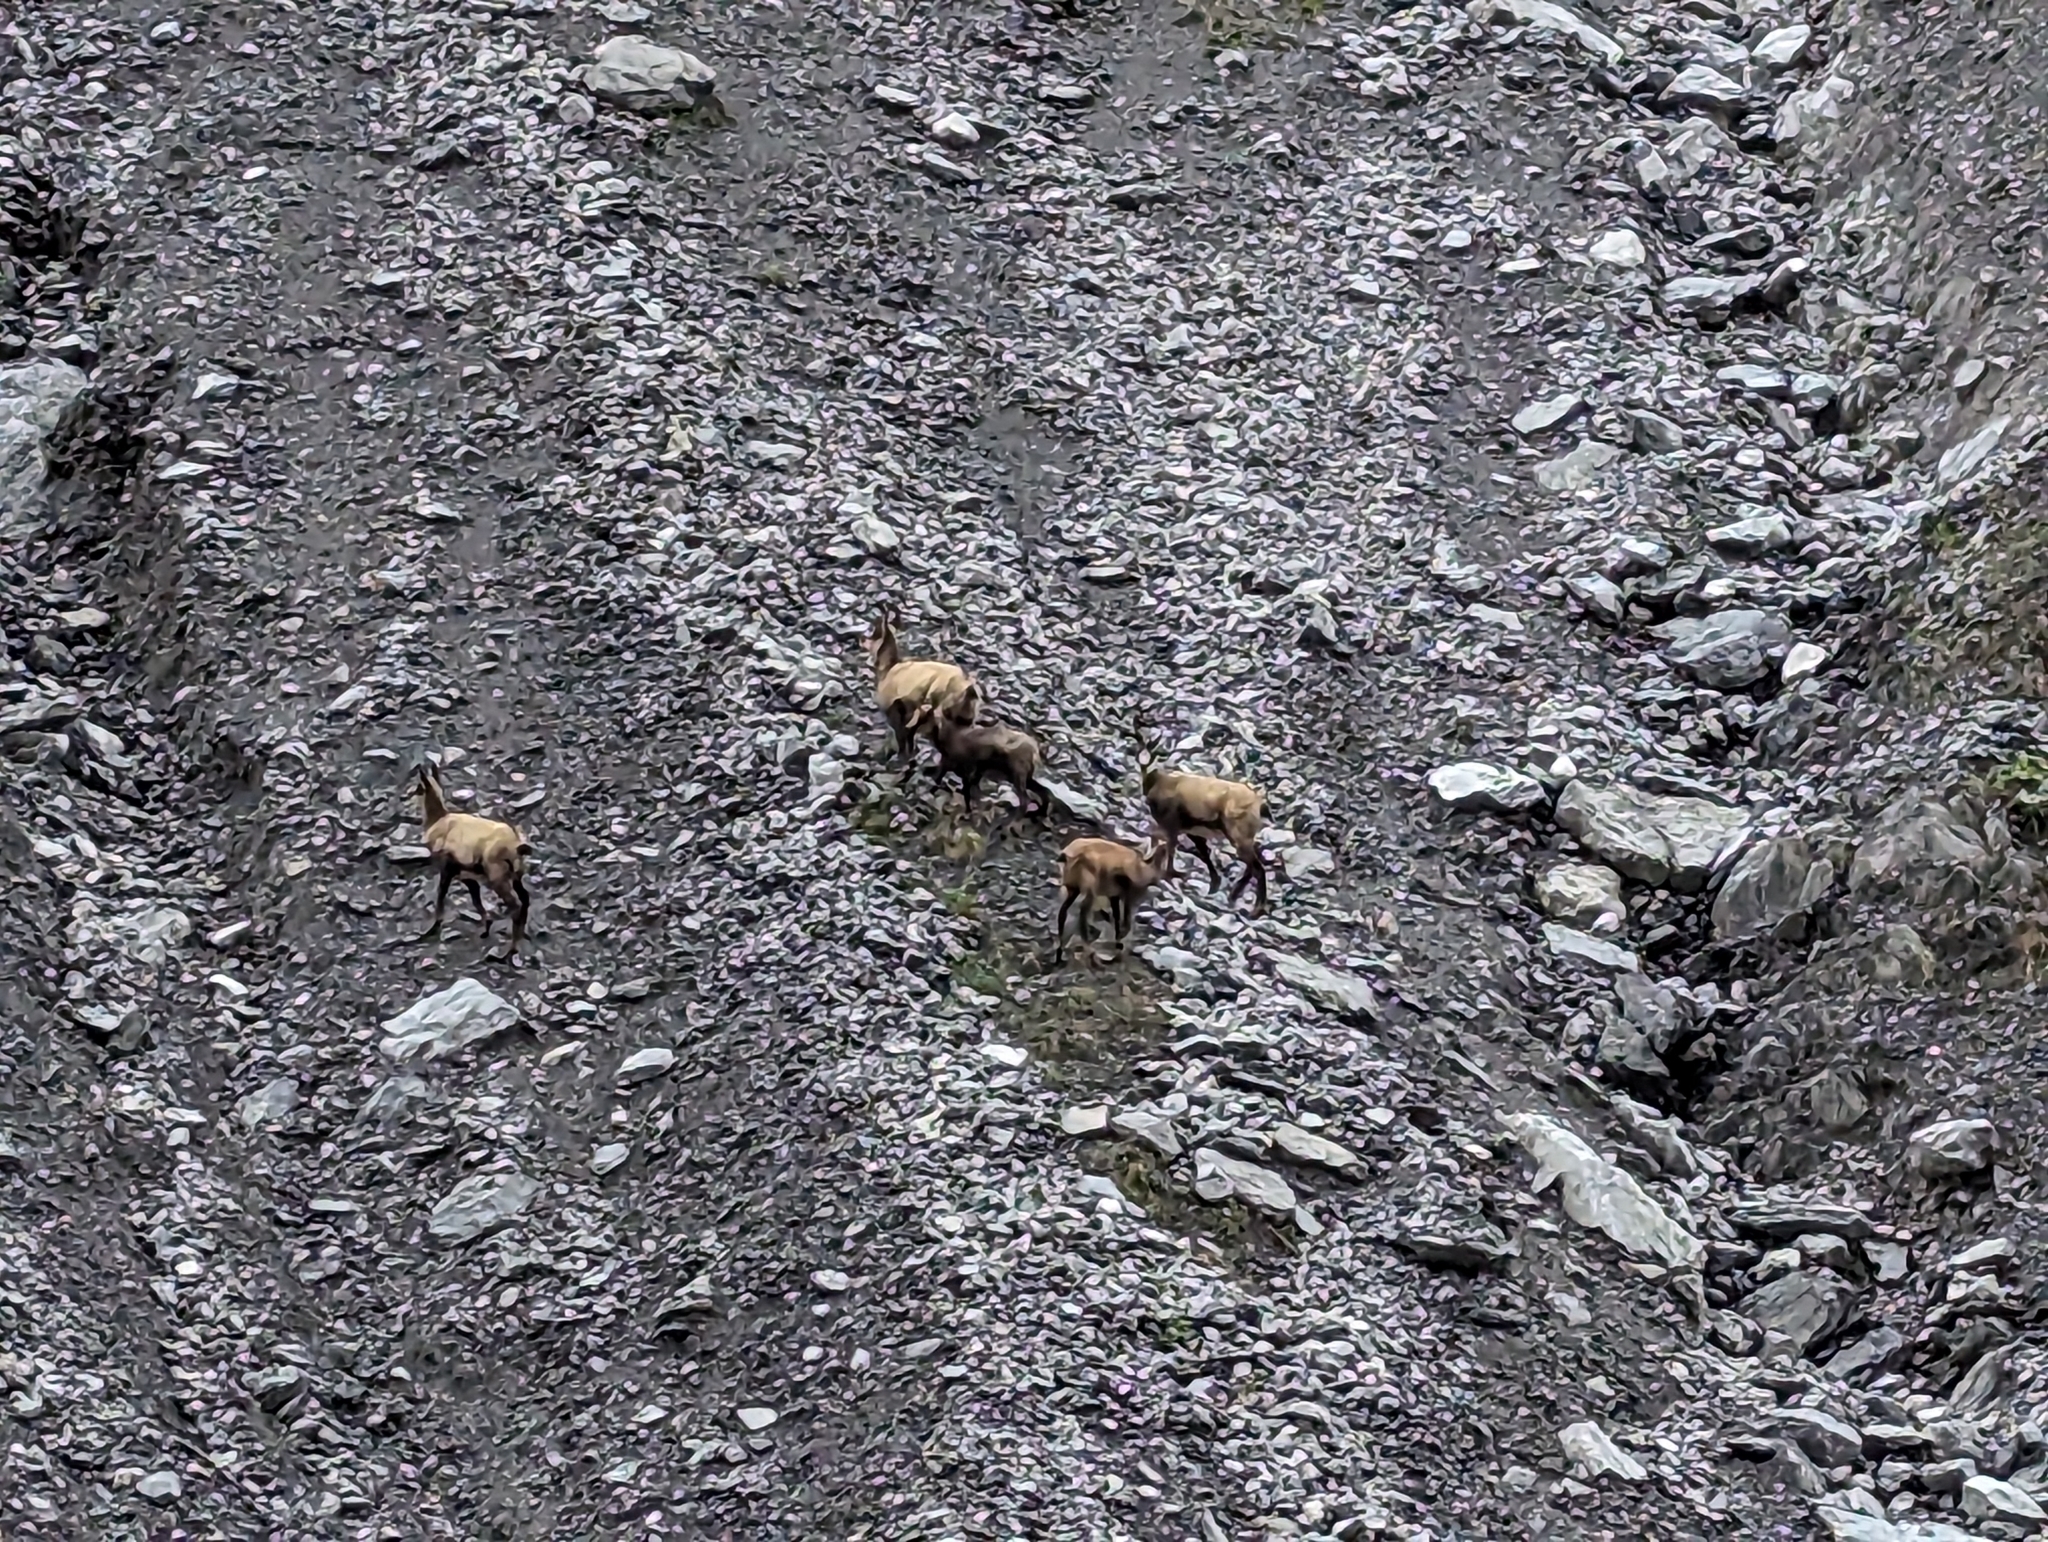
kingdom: Animalia
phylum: Chordata
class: Mammalia
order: Artiodactyla
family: Bovidae
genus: Rupicapra
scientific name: Rupicapra rupicapra
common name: Chamois
